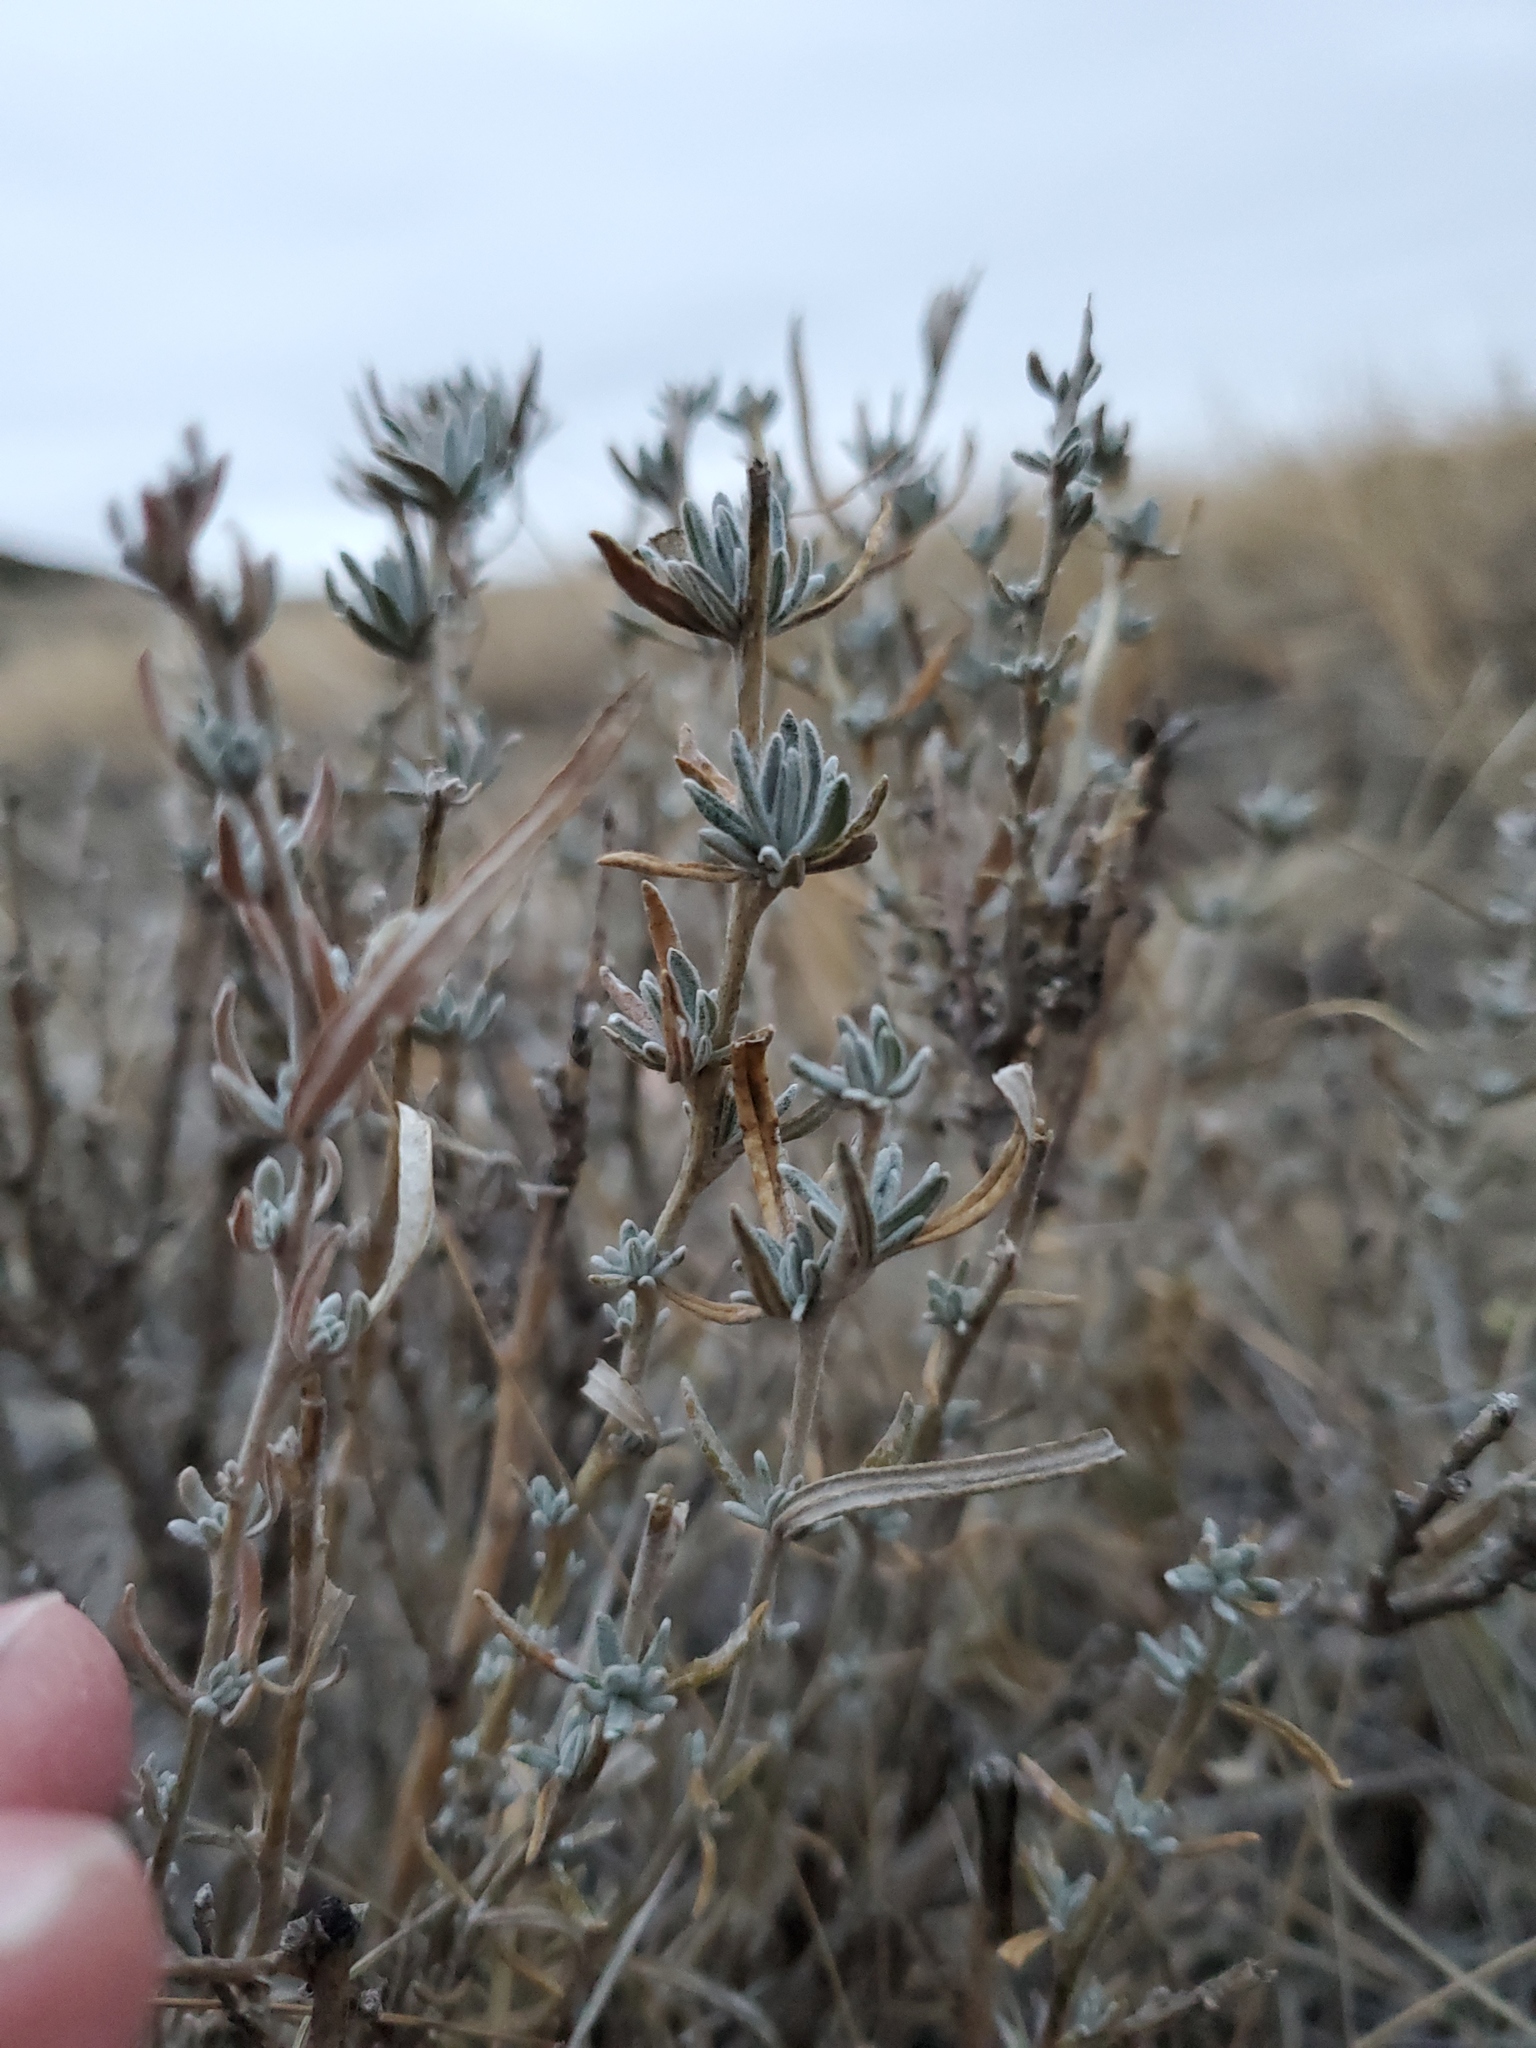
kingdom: Plantae
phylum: Tracheophyta
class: Magnoliopsida
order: Caryophyllales
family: Amaranthaceae
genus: Krascheninnikovia
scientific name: Krascheninnikovia lanata
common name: Winterfat
